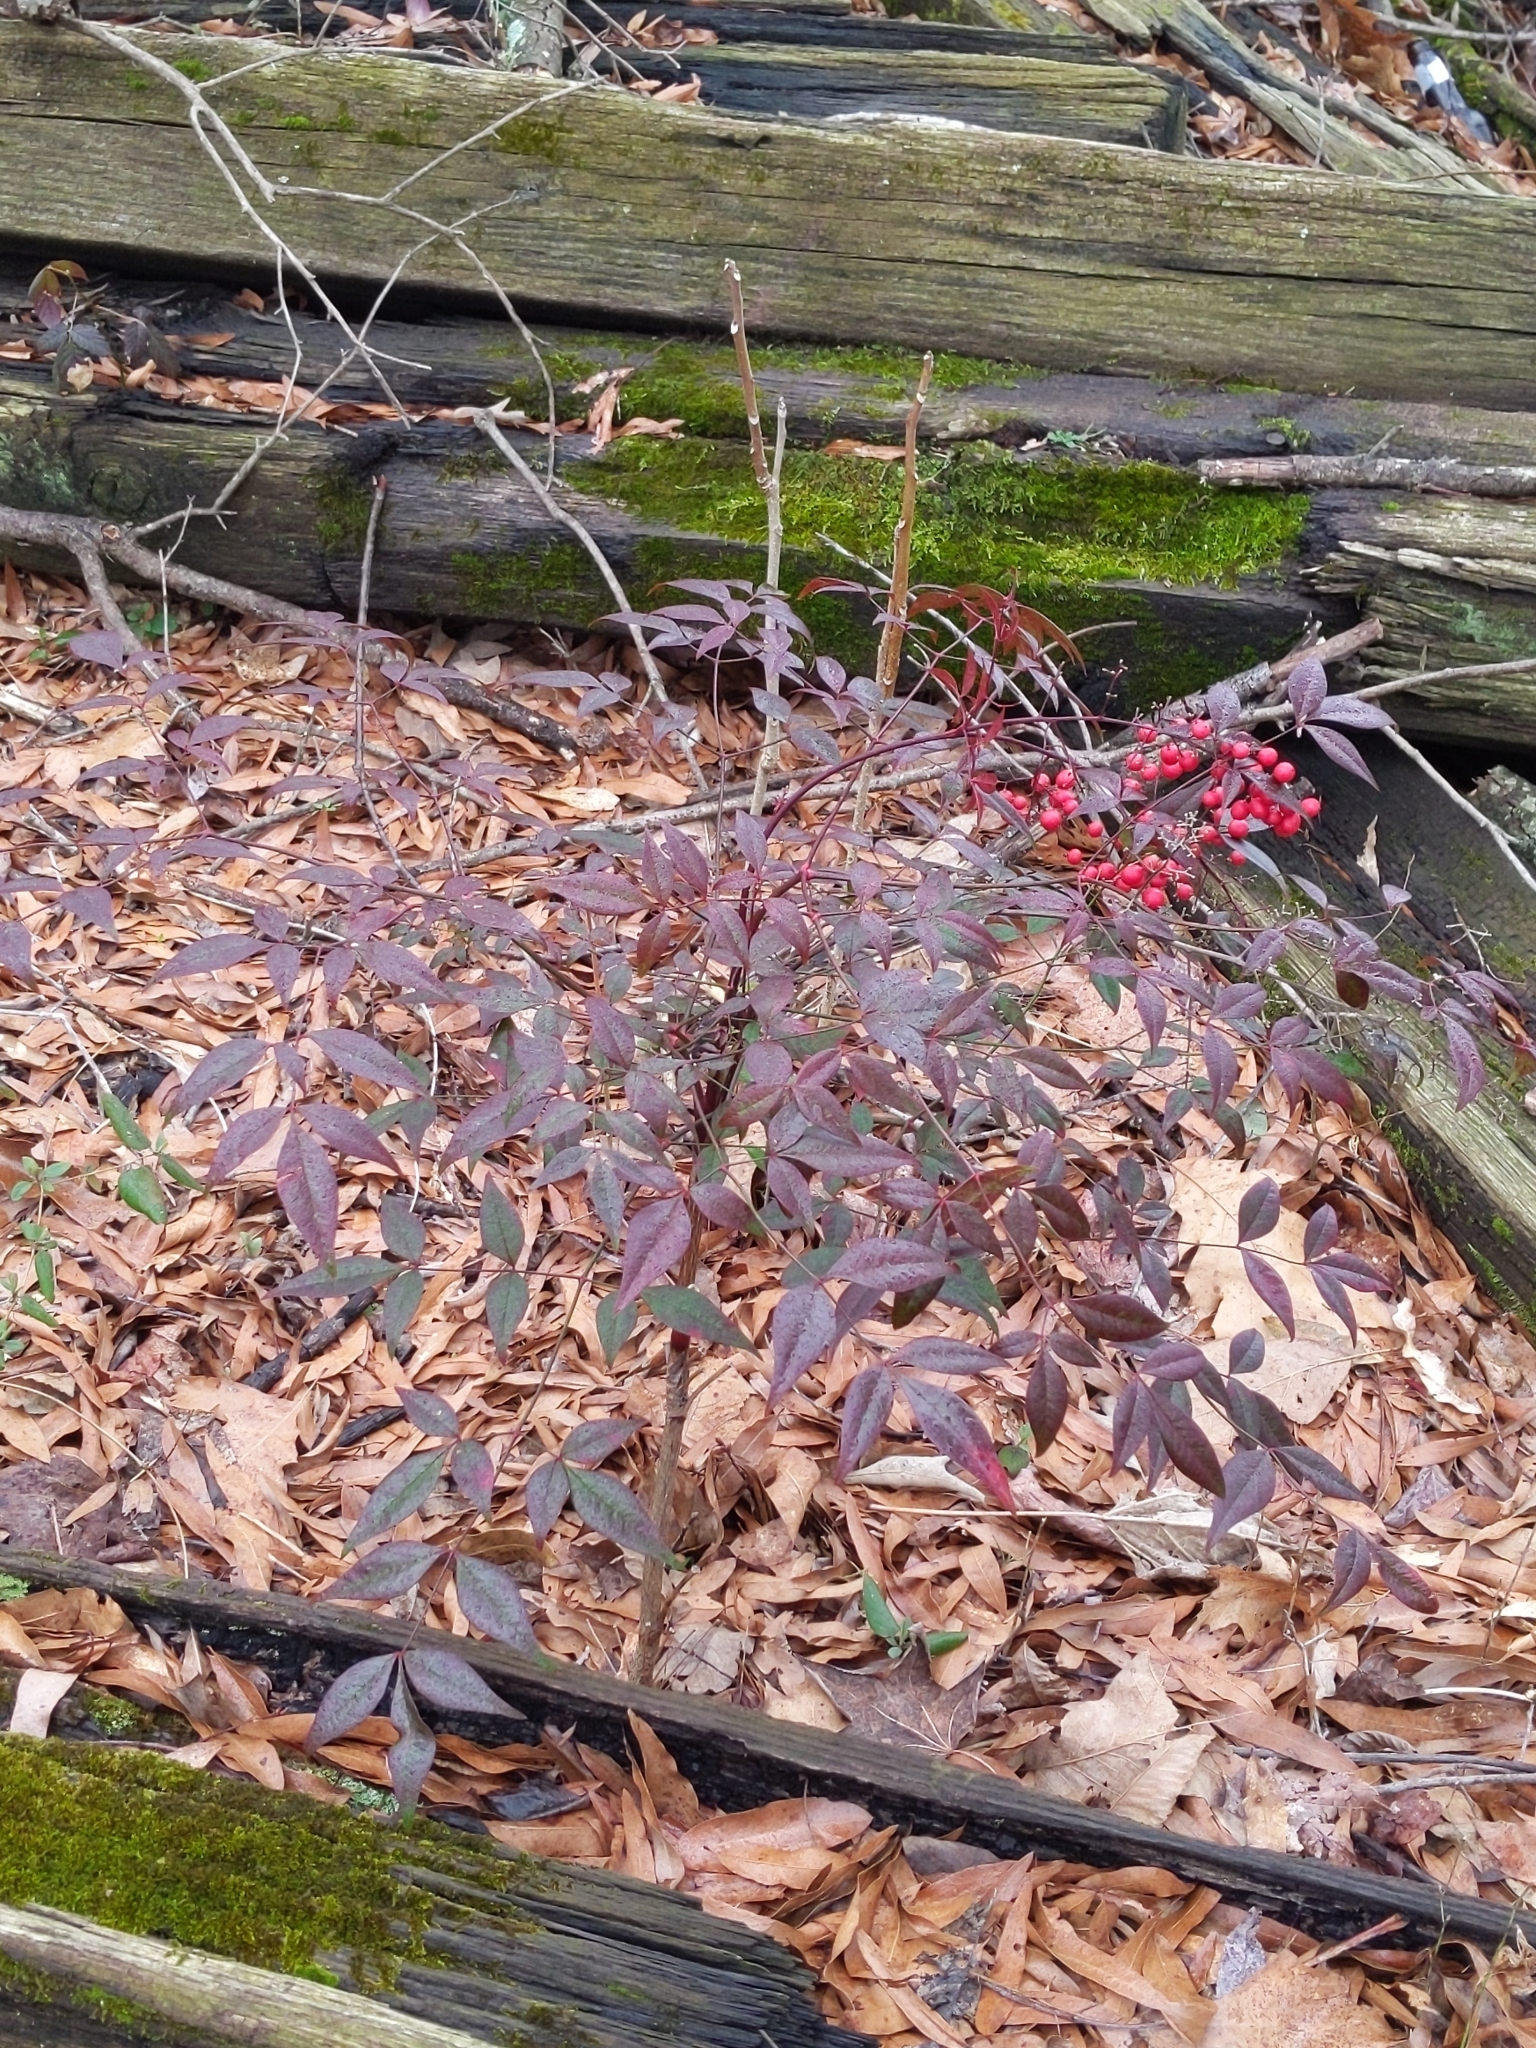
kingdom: Plantae
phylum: Tracheophyta
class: Magnoliopsida
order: Ranunculales
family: Berberidaceae
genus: Nandina
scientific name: Nandina domestica
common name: Sacred bamboo
